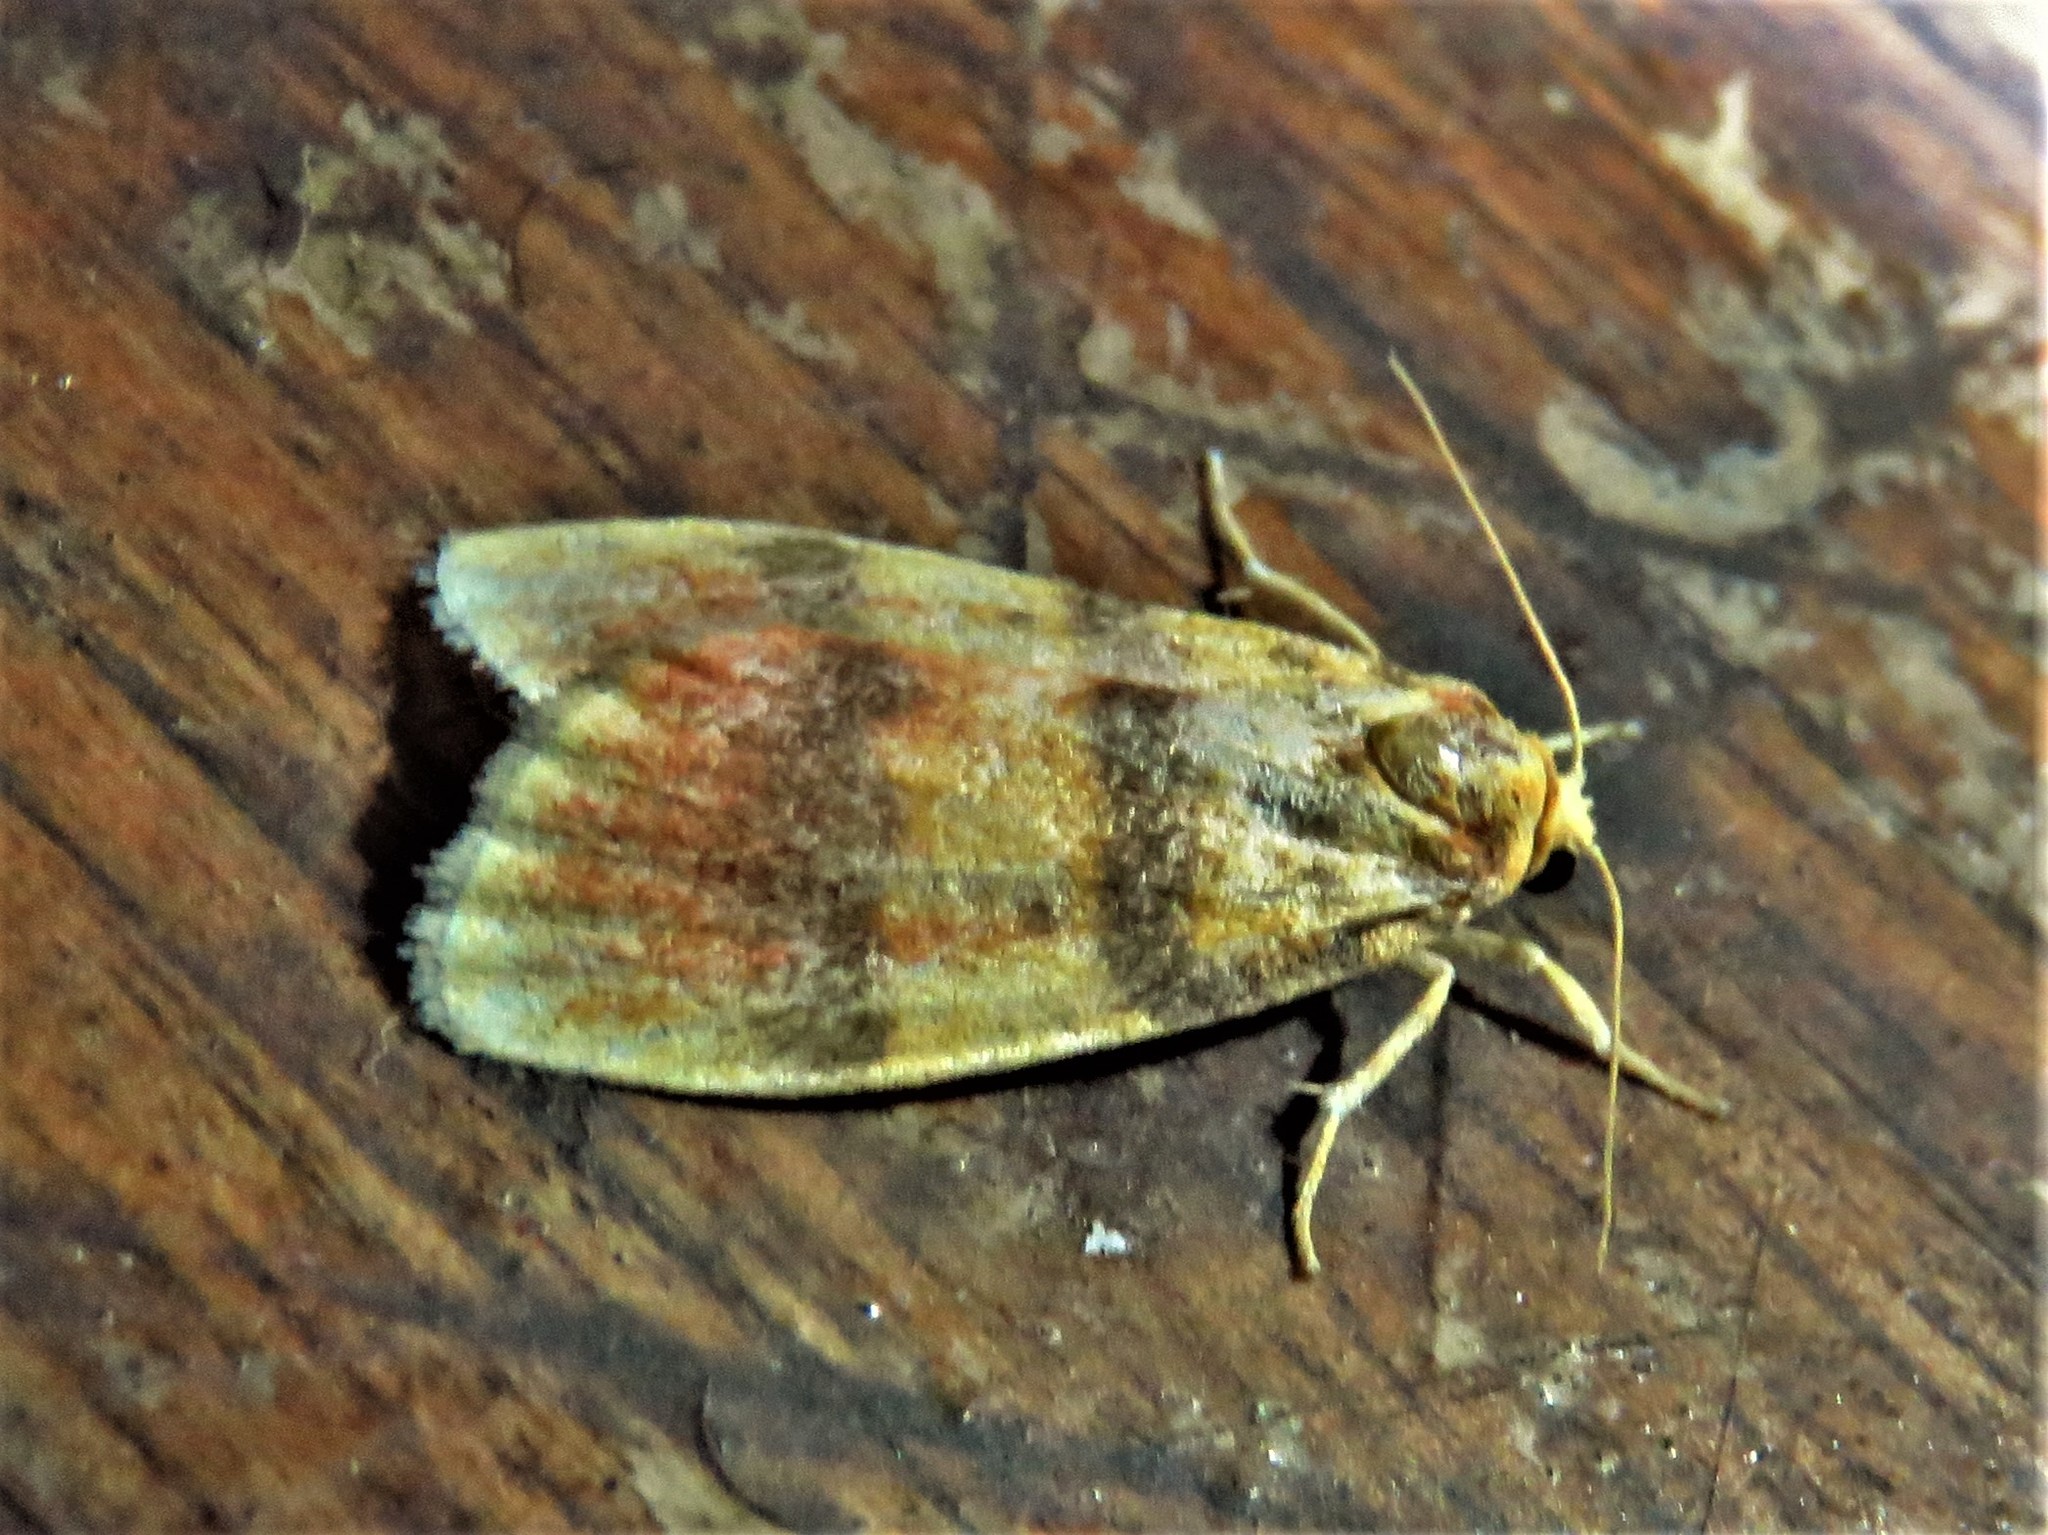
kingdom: Animalia
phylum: Arthropoda
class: Insecta
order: Lepidoptera
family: Erebidae
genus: Cyana
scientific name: Cyana naumanni
